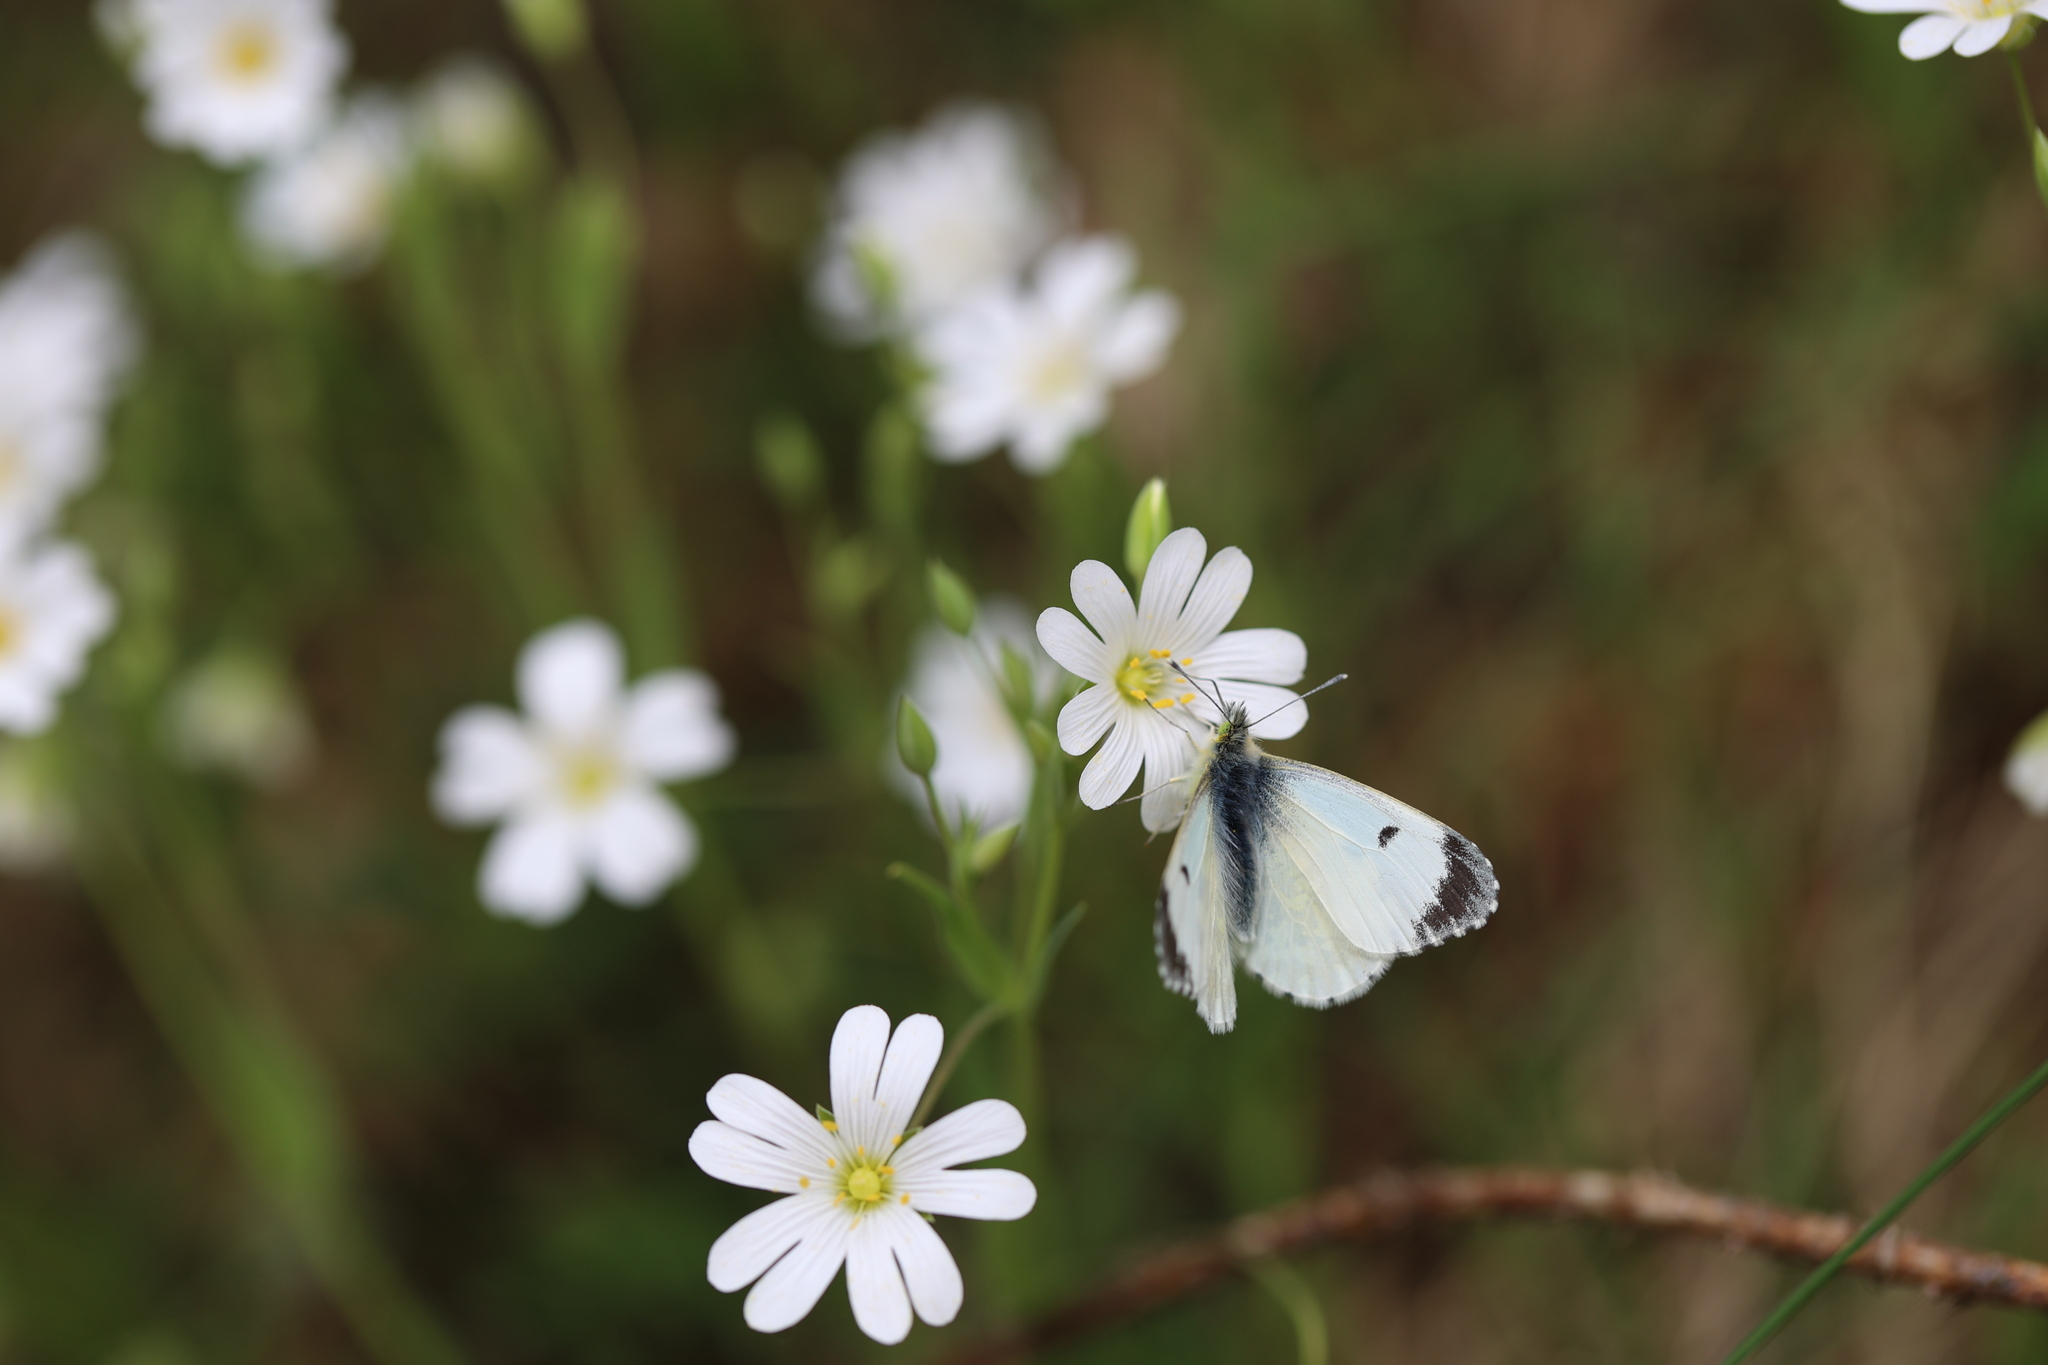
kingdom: Animalia
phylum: Arthropoda
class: Insecta
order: Lepidoptera
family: Pieridae
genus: Anthocharis
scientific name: Anthocharis cardamines
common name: Orange-tip
